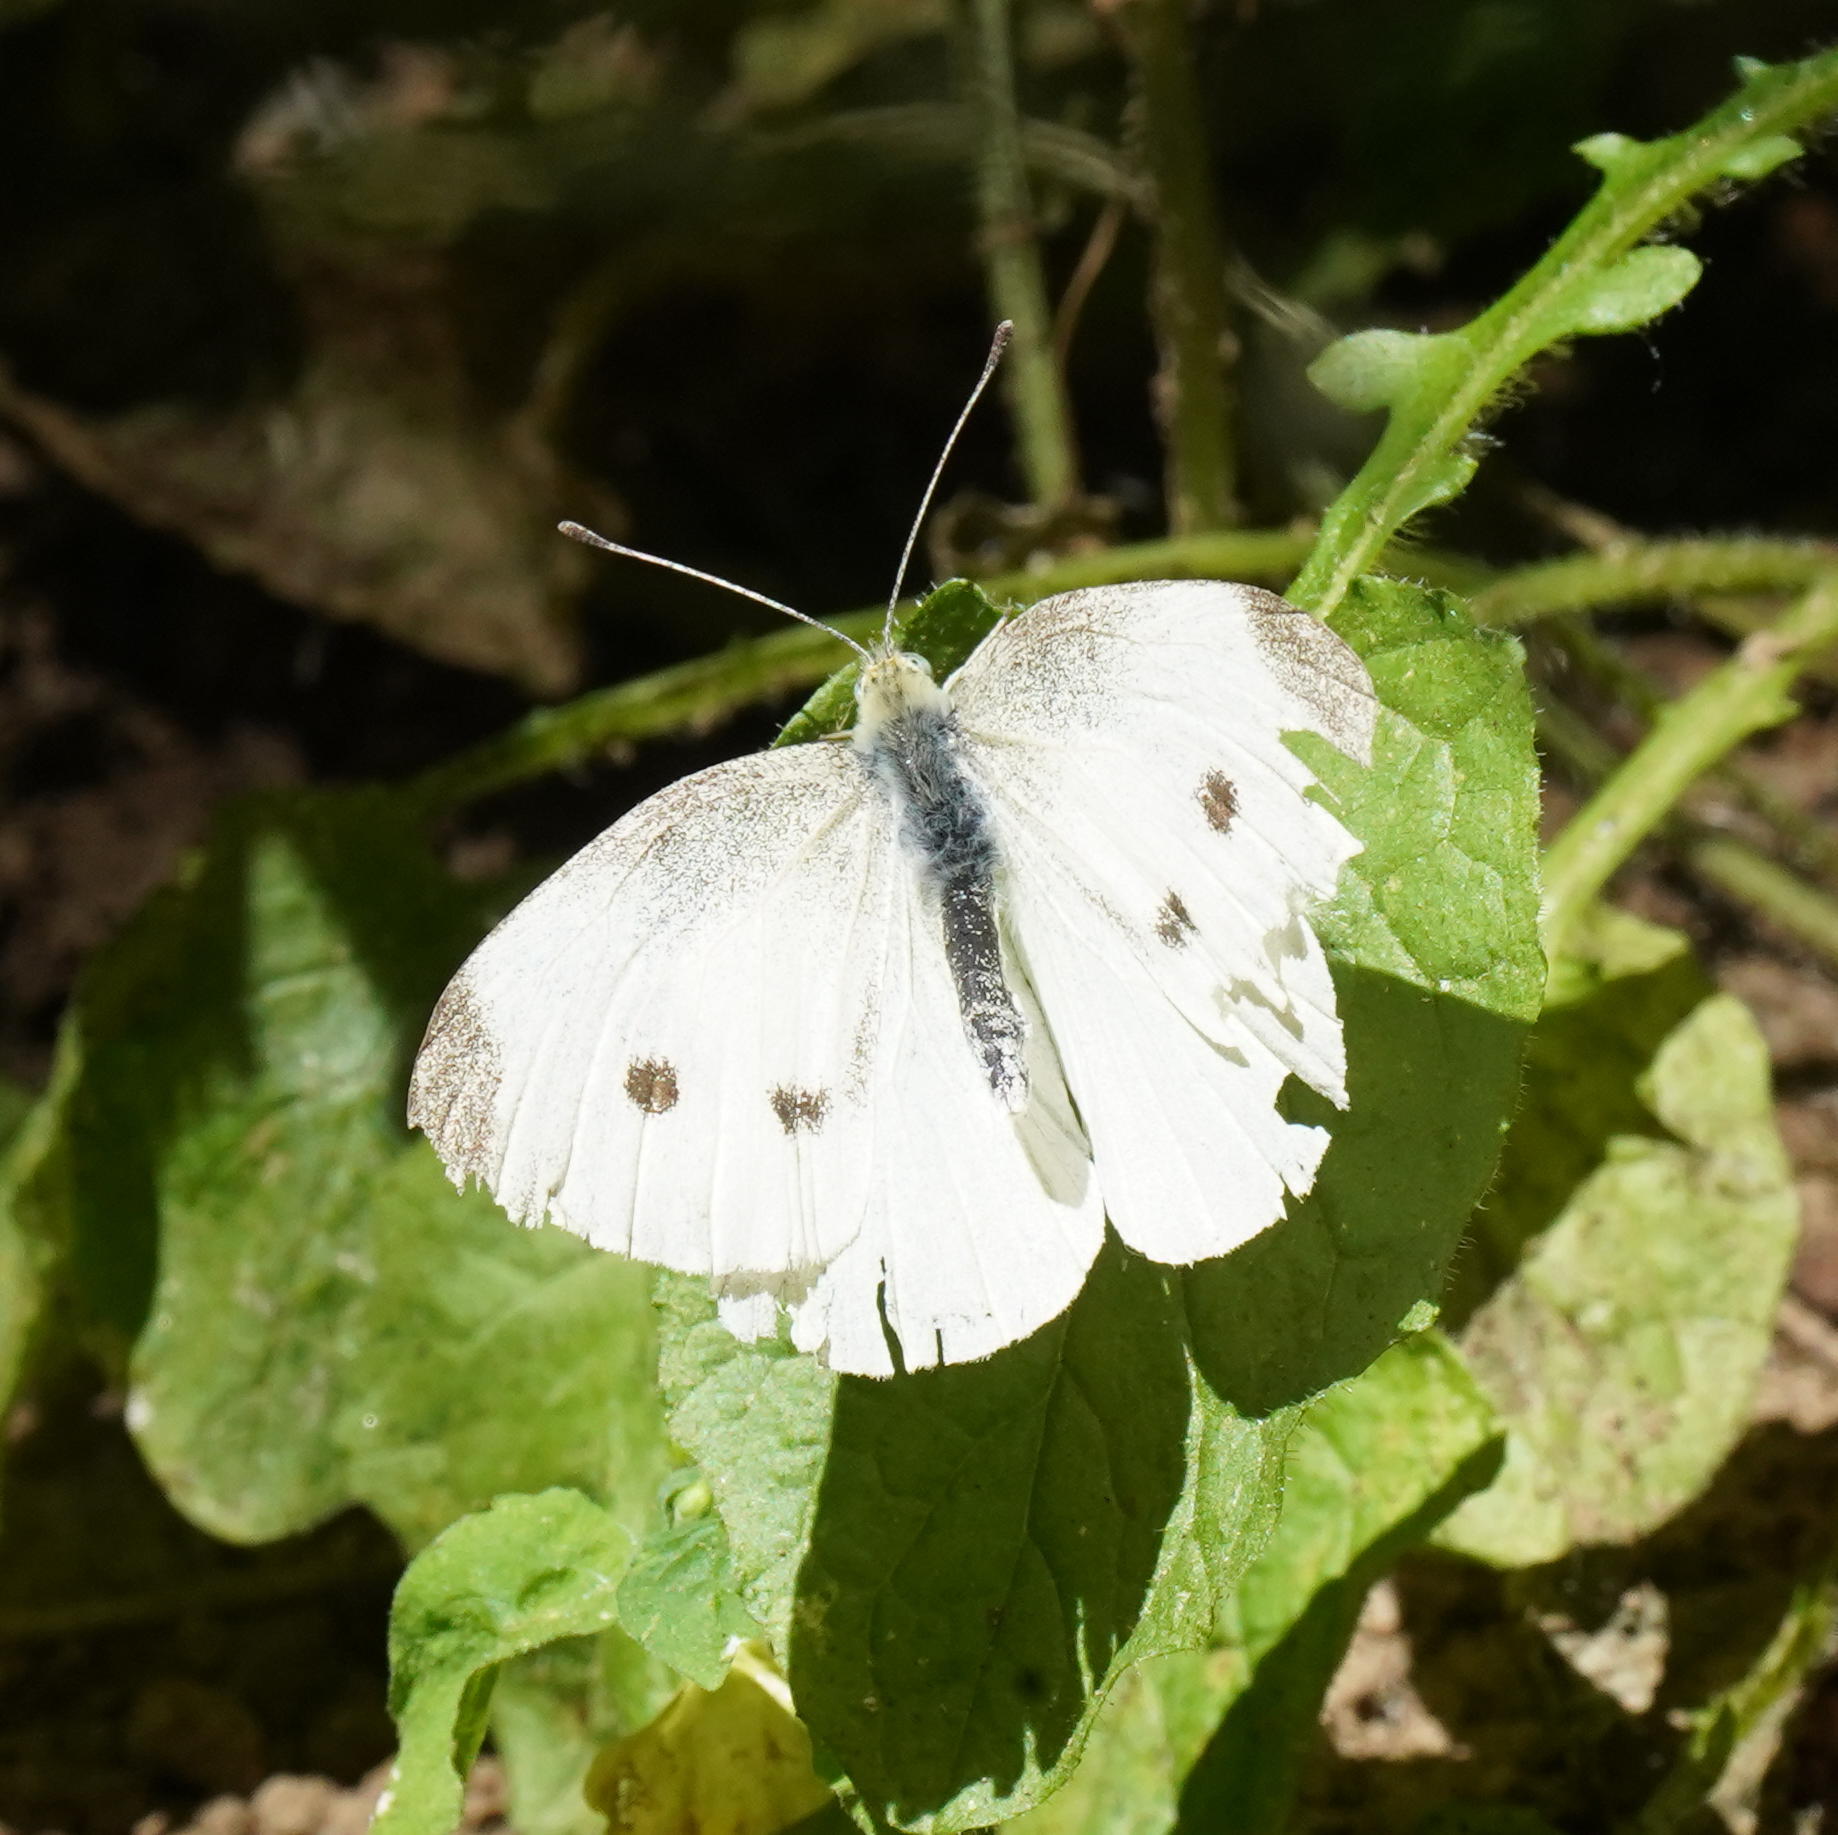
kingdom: Animalia
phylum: Arthropoda
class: Insecta
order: Lepidoptera
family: Pieridae
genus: Pieris
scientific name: Pieris rapae
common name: Small white
